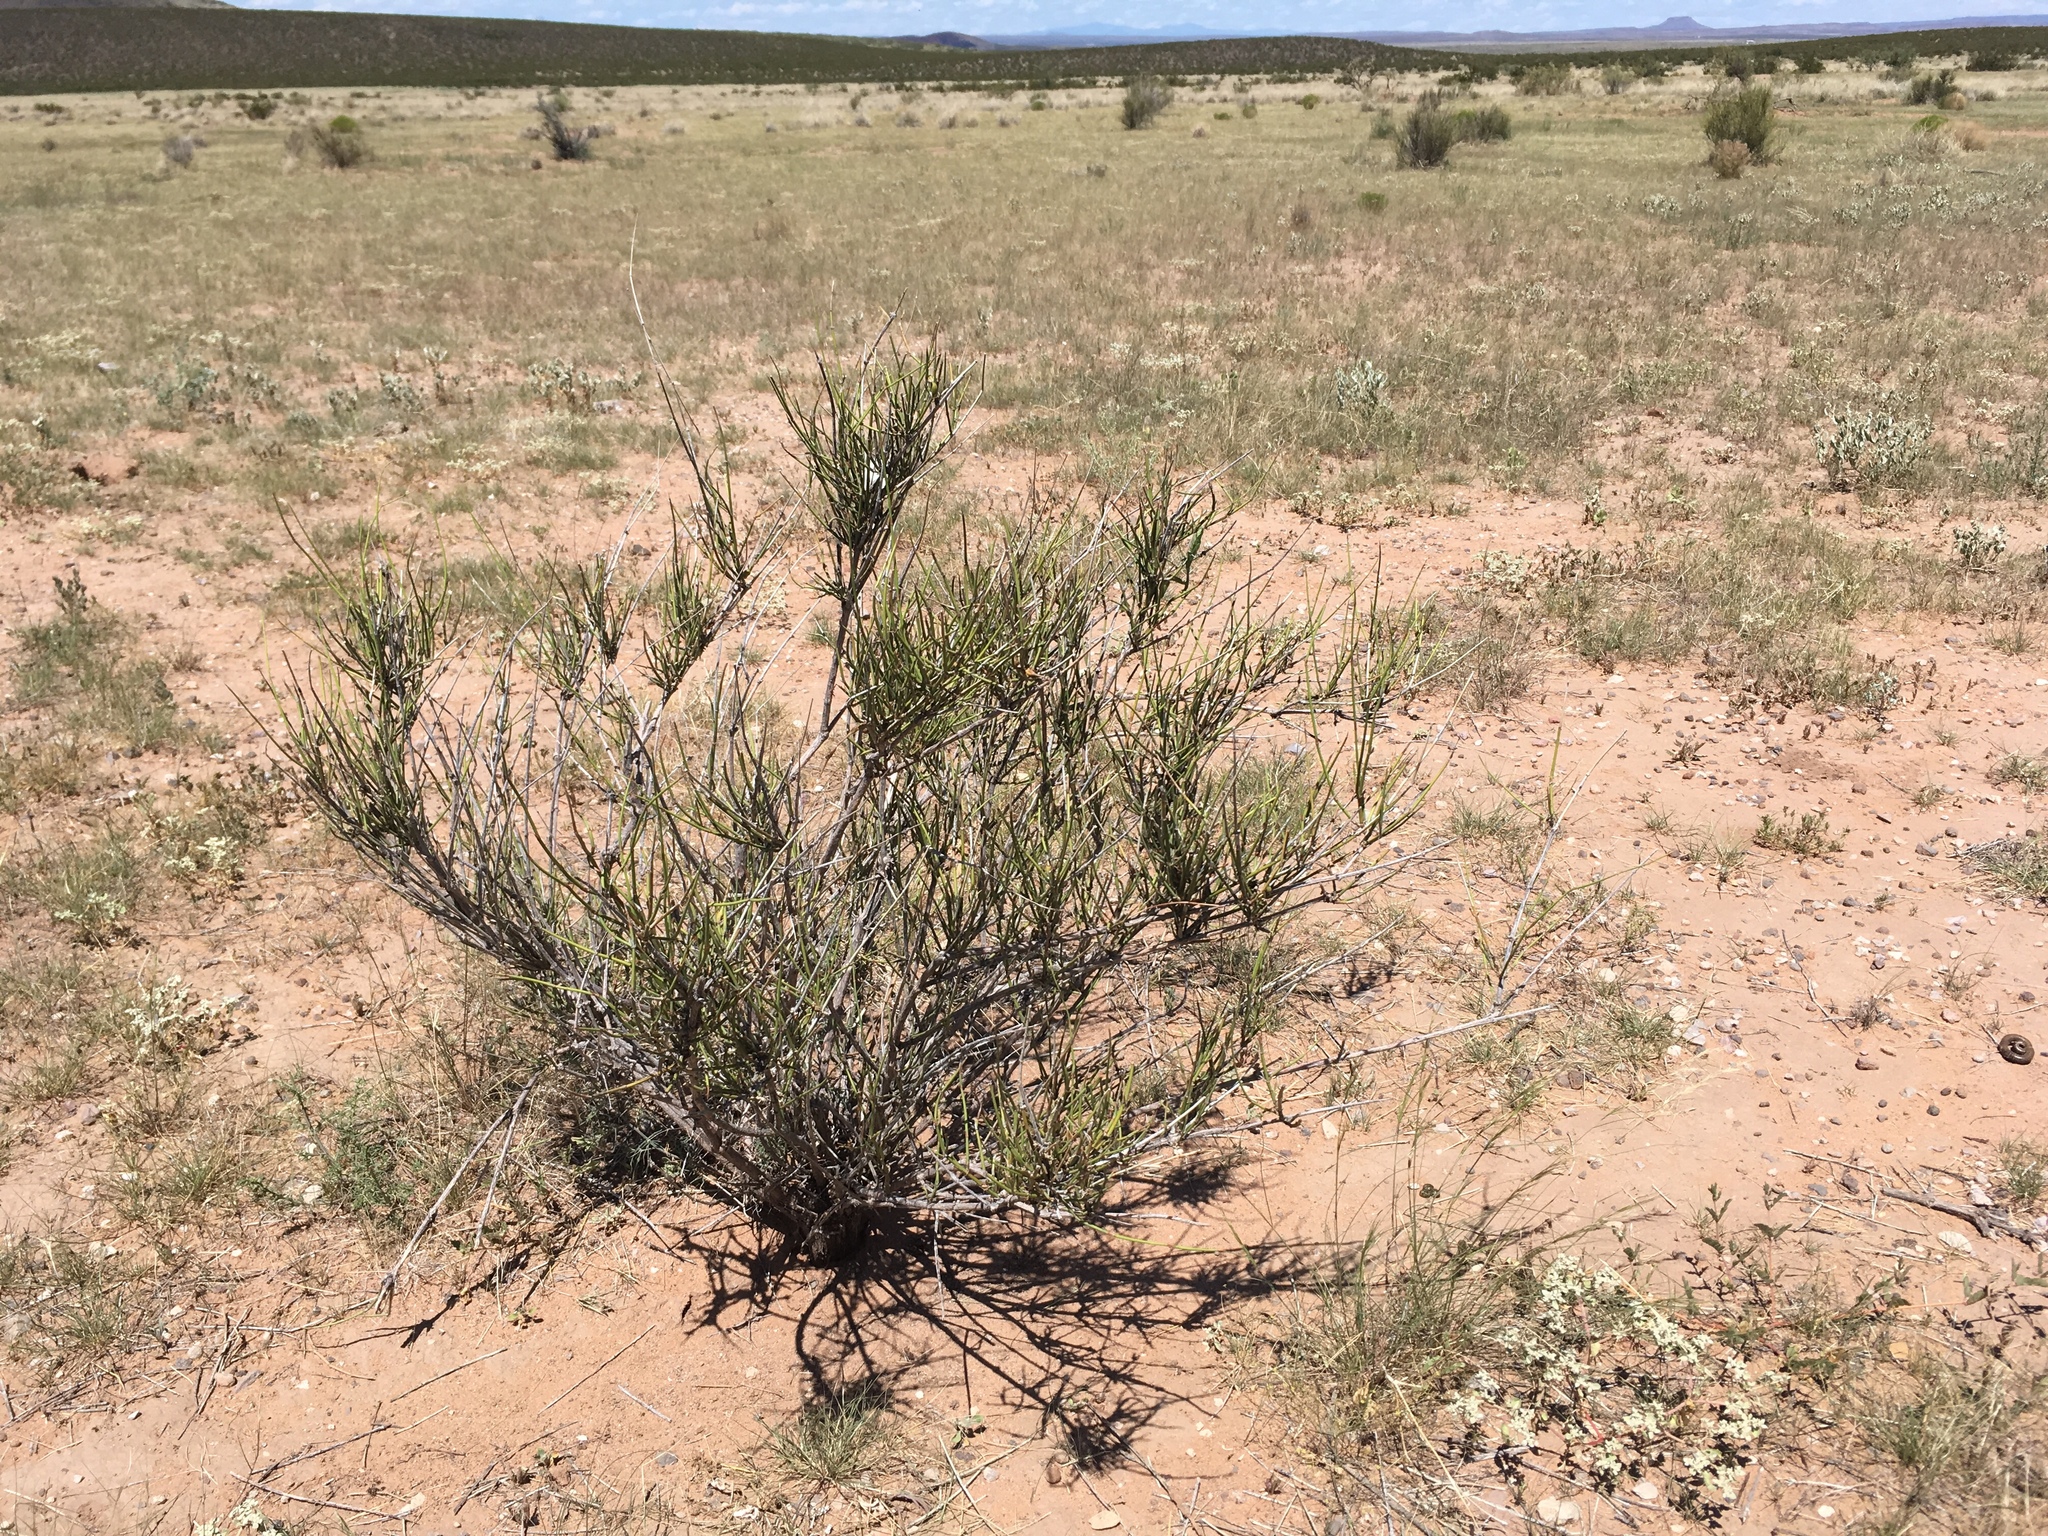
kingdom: Plantae
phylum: Tracheophyta
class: Gnetopsida
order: Ephedrales
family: Ephedraceae
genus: Ephedra
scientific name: Ephedra trifurca
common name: Mexican-tea
